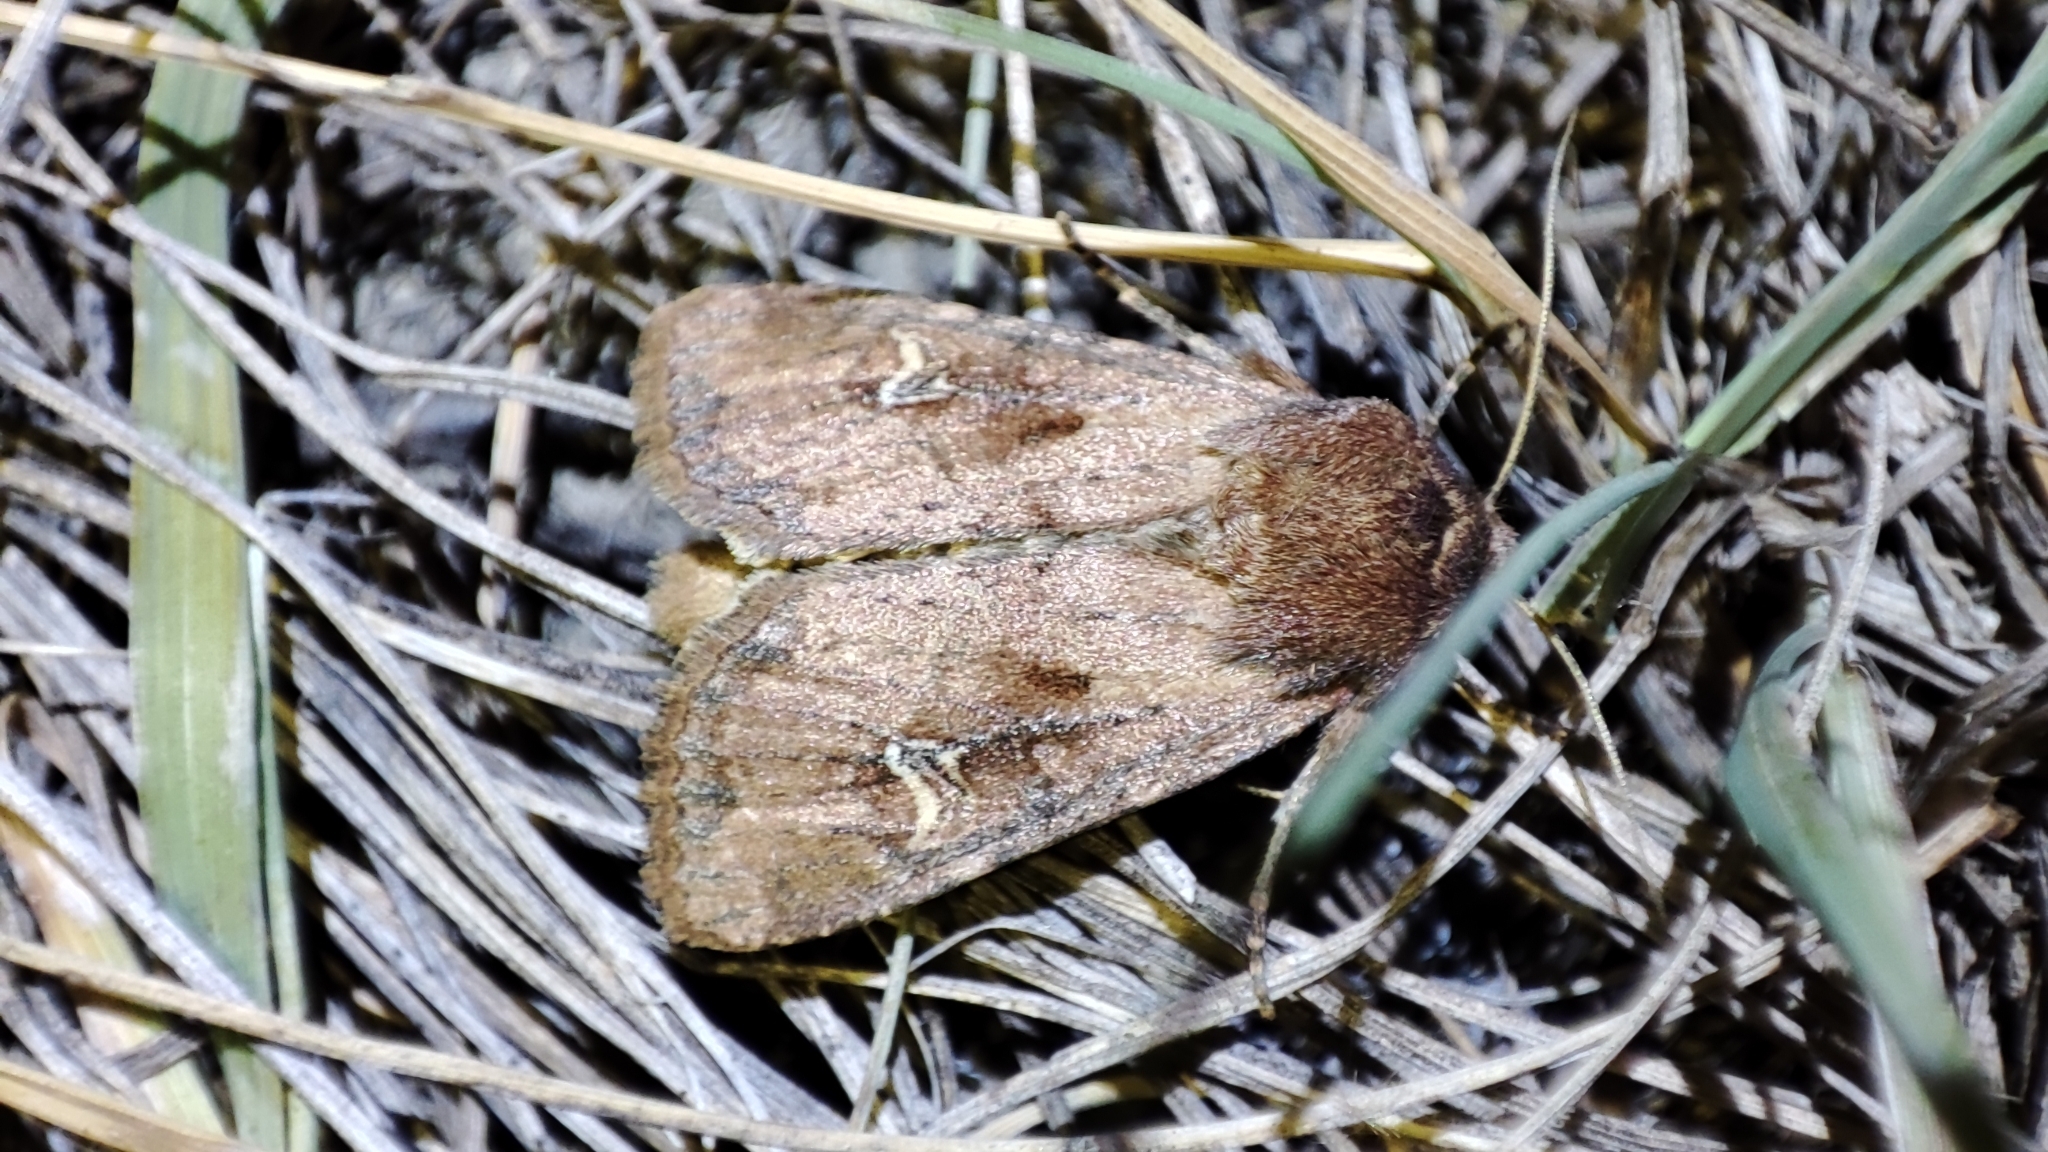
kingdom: Animalia
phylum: Arthropoda
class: Insecta
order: Lepidoptera
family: Noctuidae
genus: Resapamea
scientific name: Resapamea hedeni
